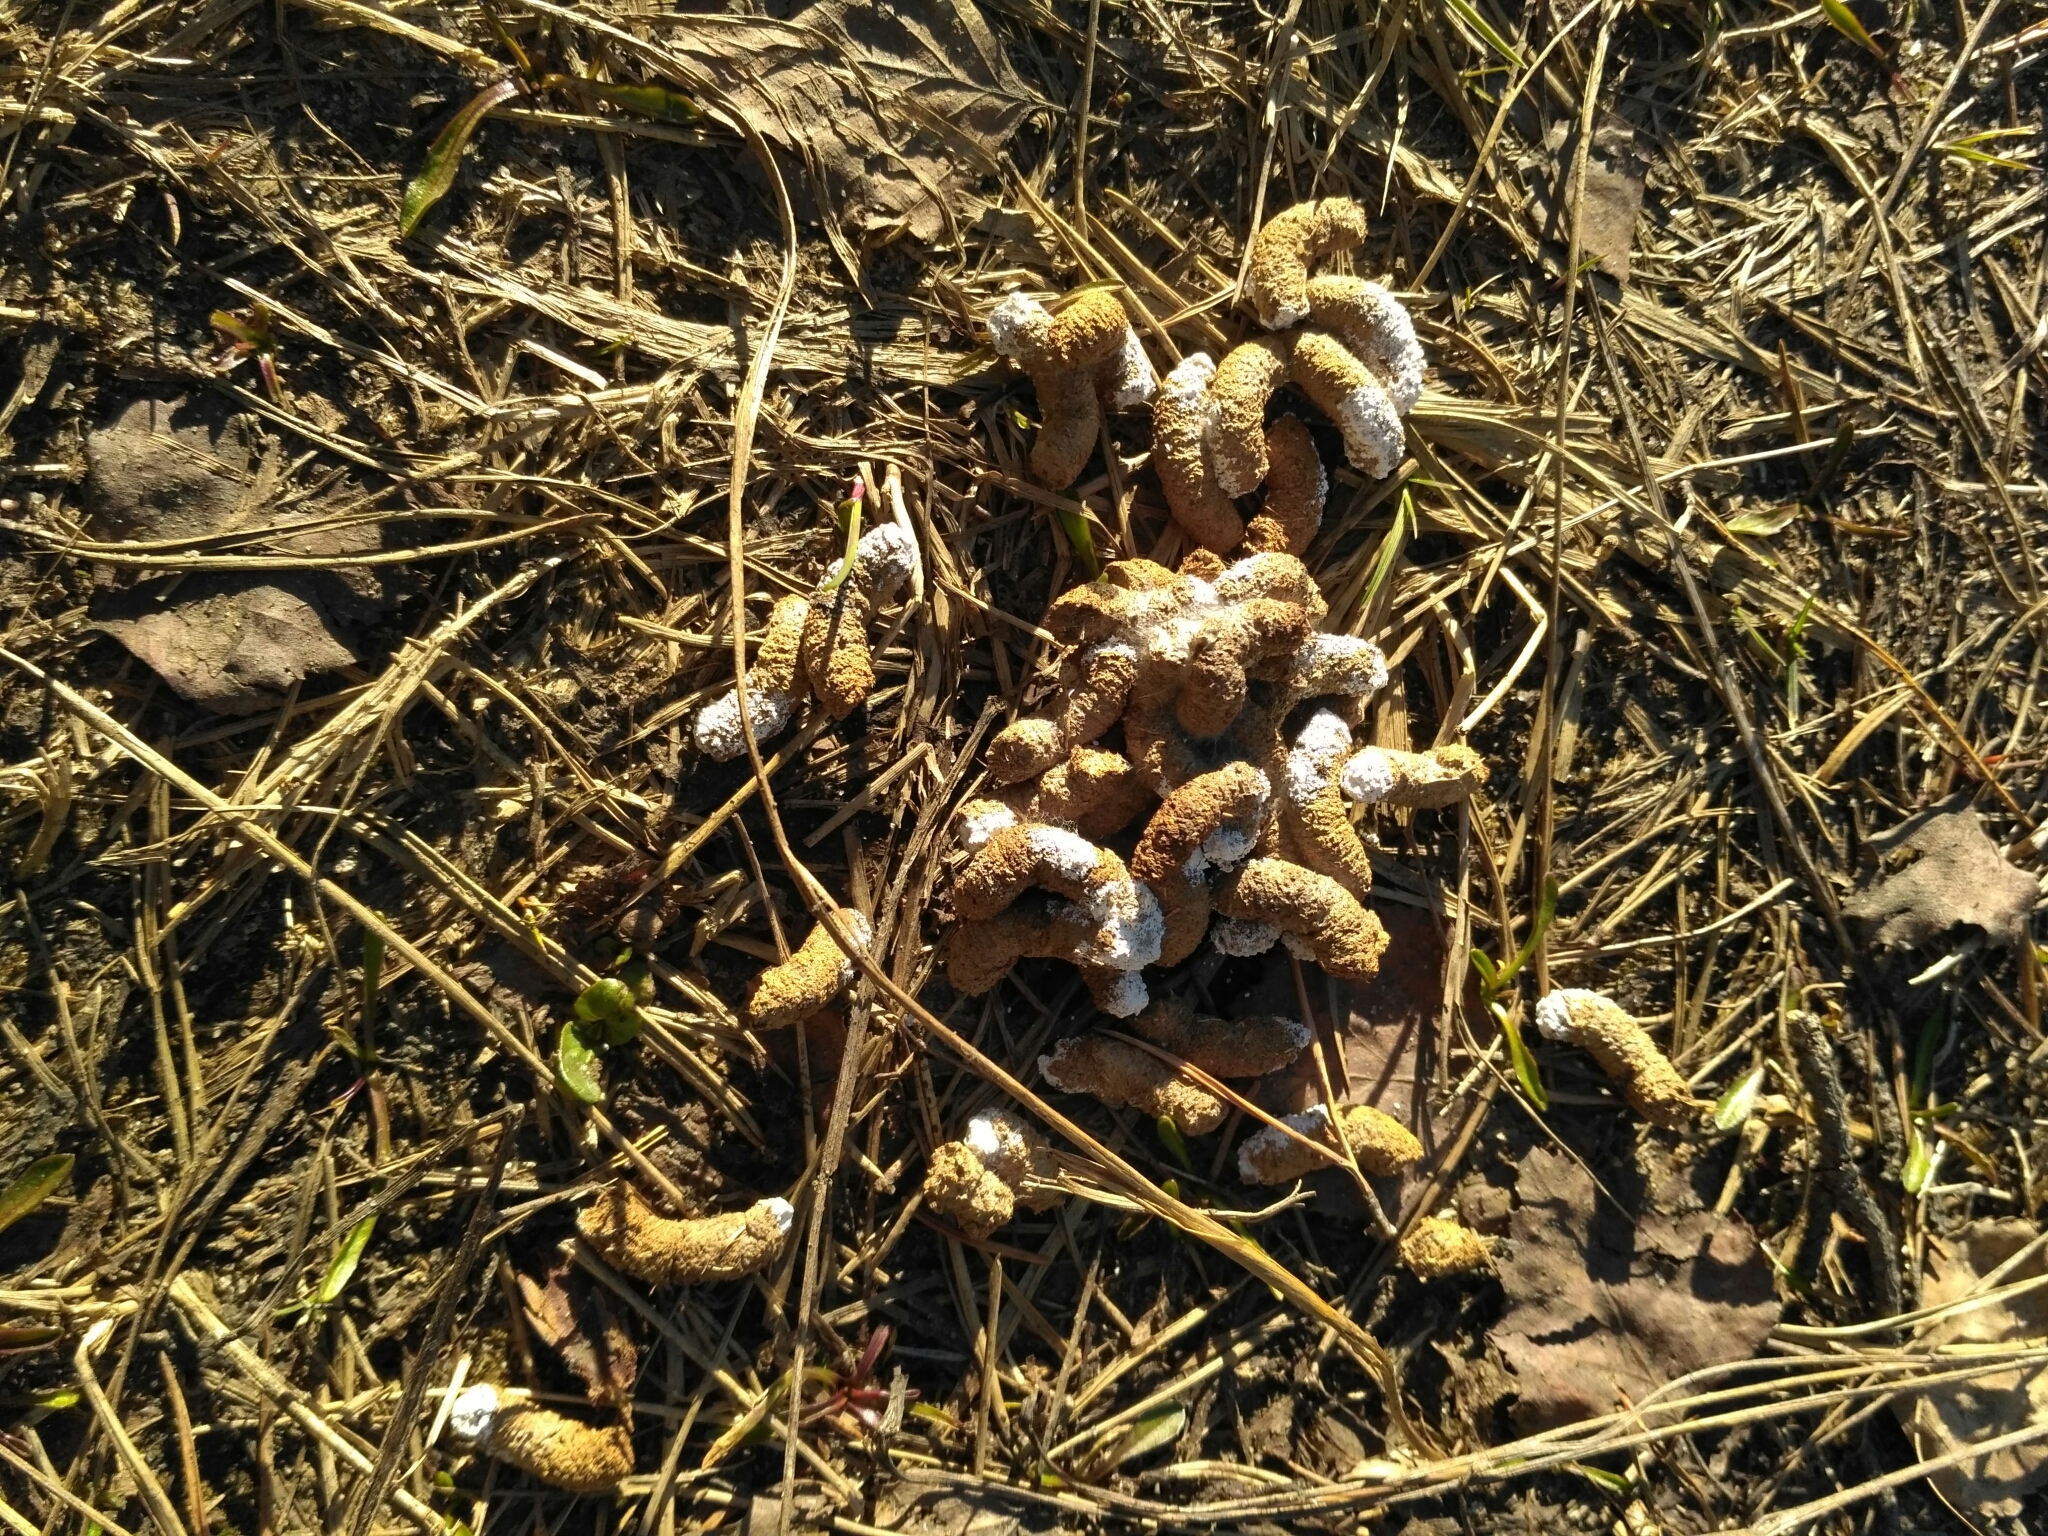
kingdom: Animalia
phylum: Chordata
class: Aves
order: Galliformes
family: Phasianidae
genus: Tetrastes
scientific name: Tetrastes bonasia
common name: Hazel grouse
